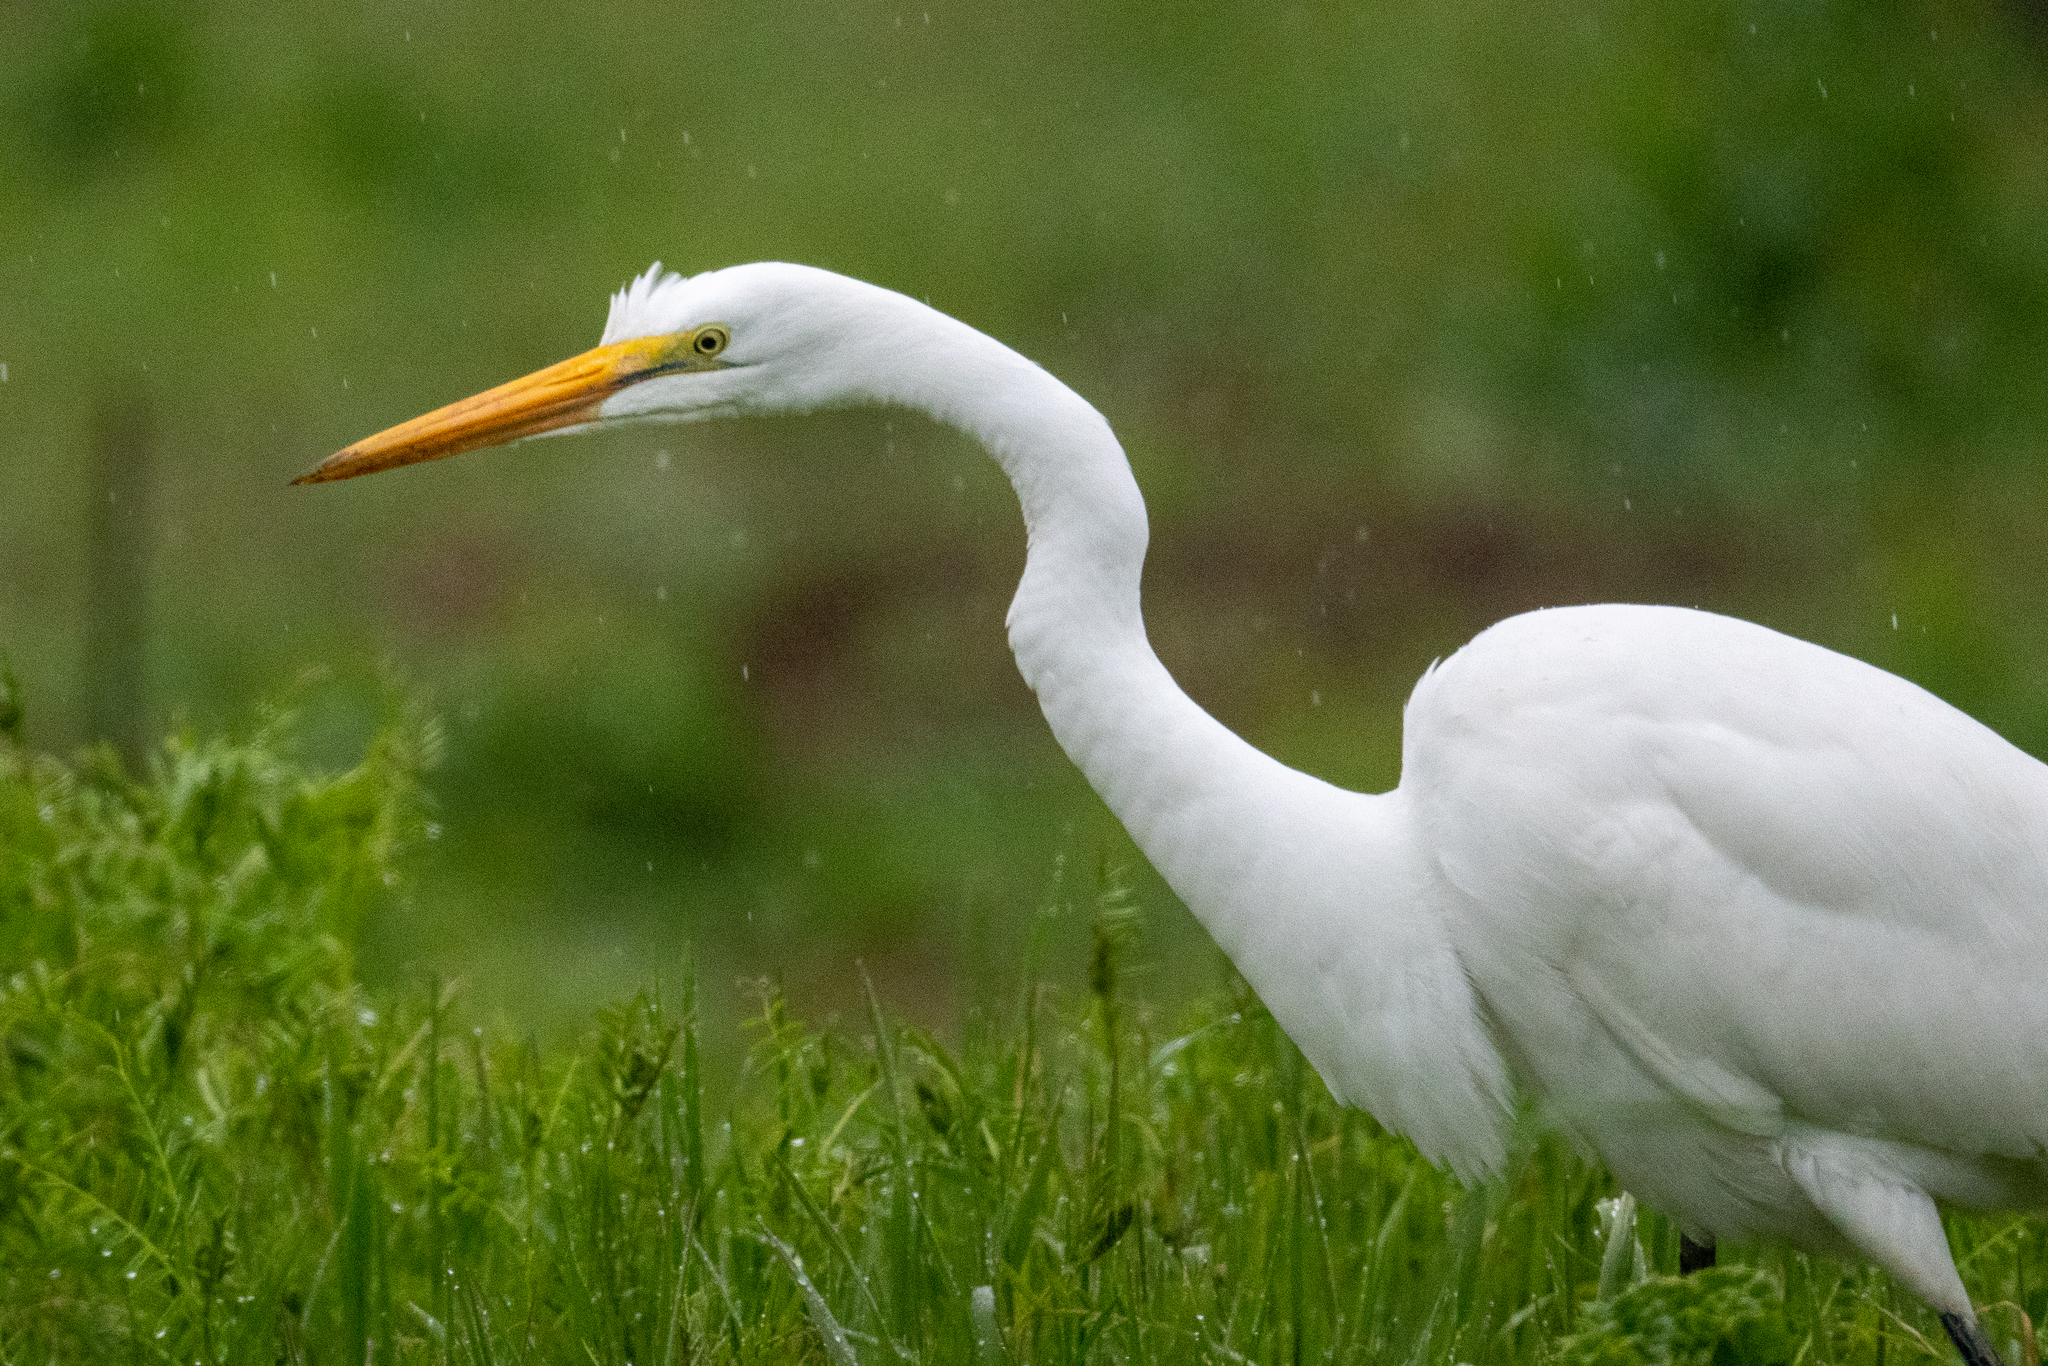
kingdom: Animalia
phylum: Chordata
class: Aves
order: Pelecaniformes
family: Ardeidae
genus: Ardea
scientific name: Ardea alba
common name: Great egret
